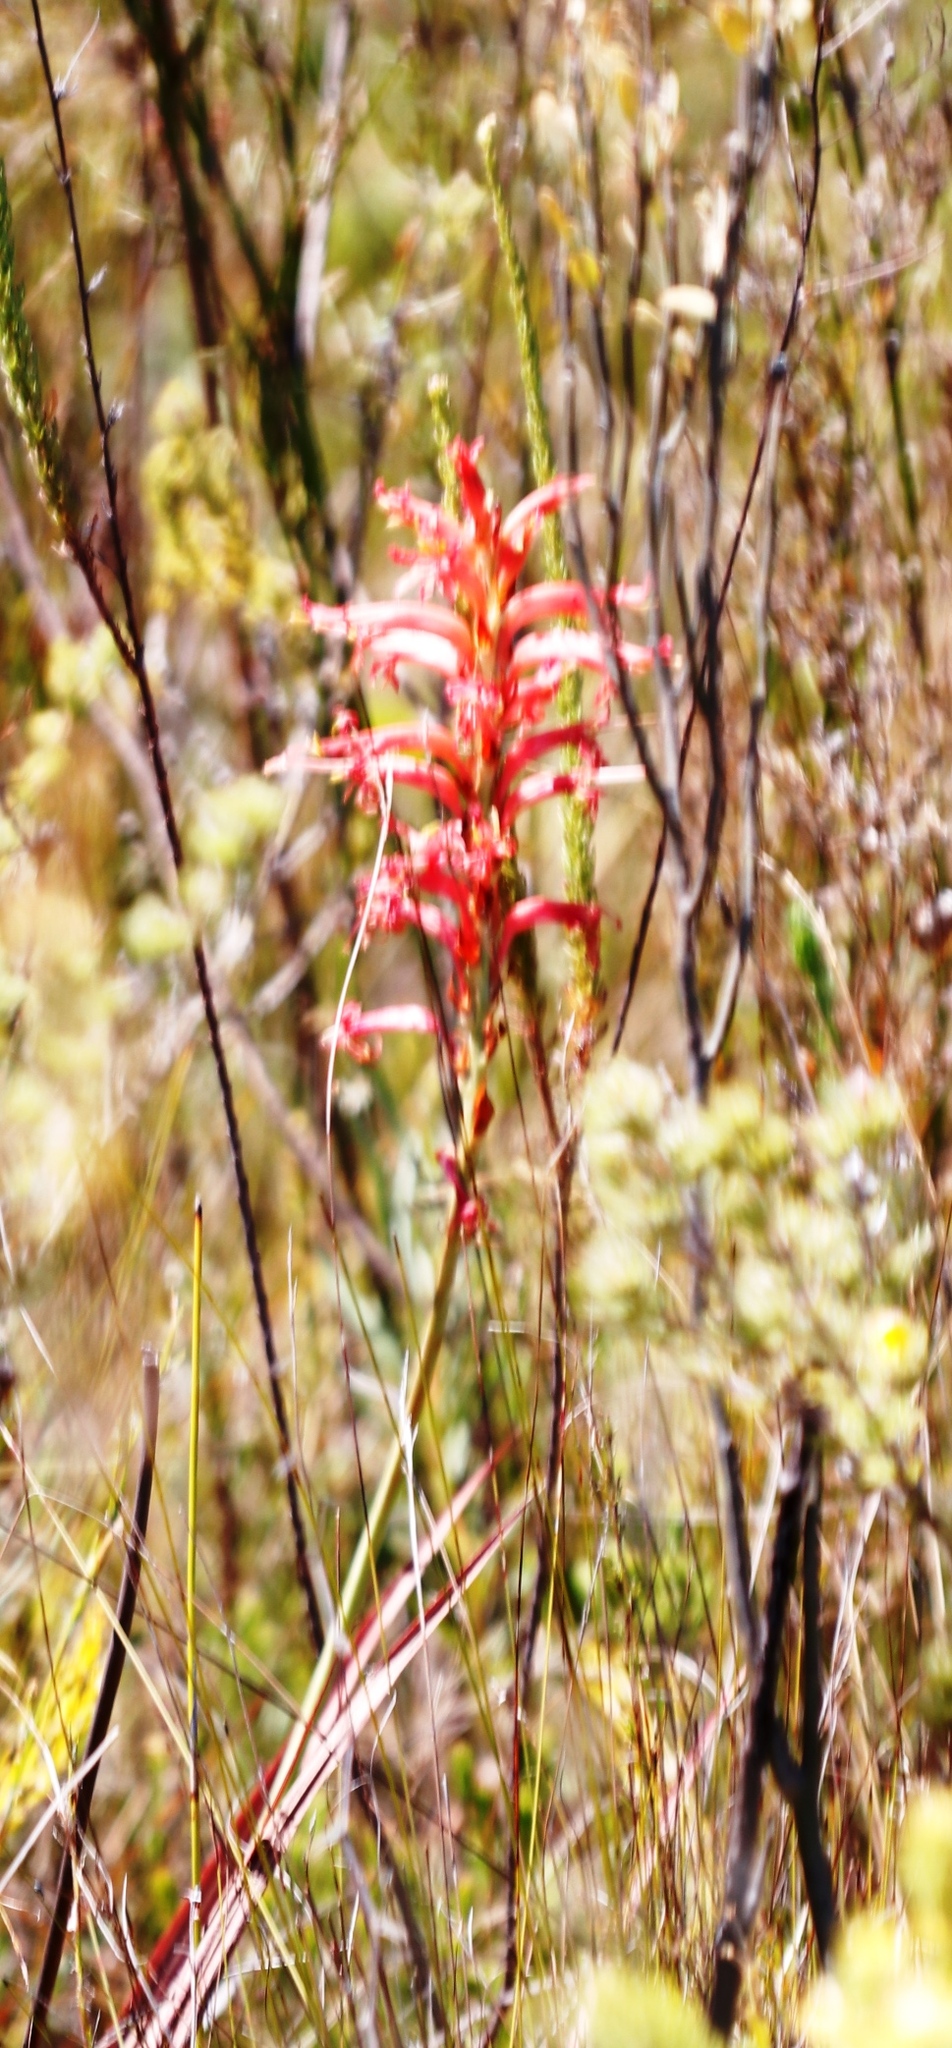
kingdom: Plantae
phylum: Tracheophyta
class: Liliopsida
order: Asparagales
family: Iridaceae
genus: Tritoniopsis
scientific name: Tritoniopsis antholyza
